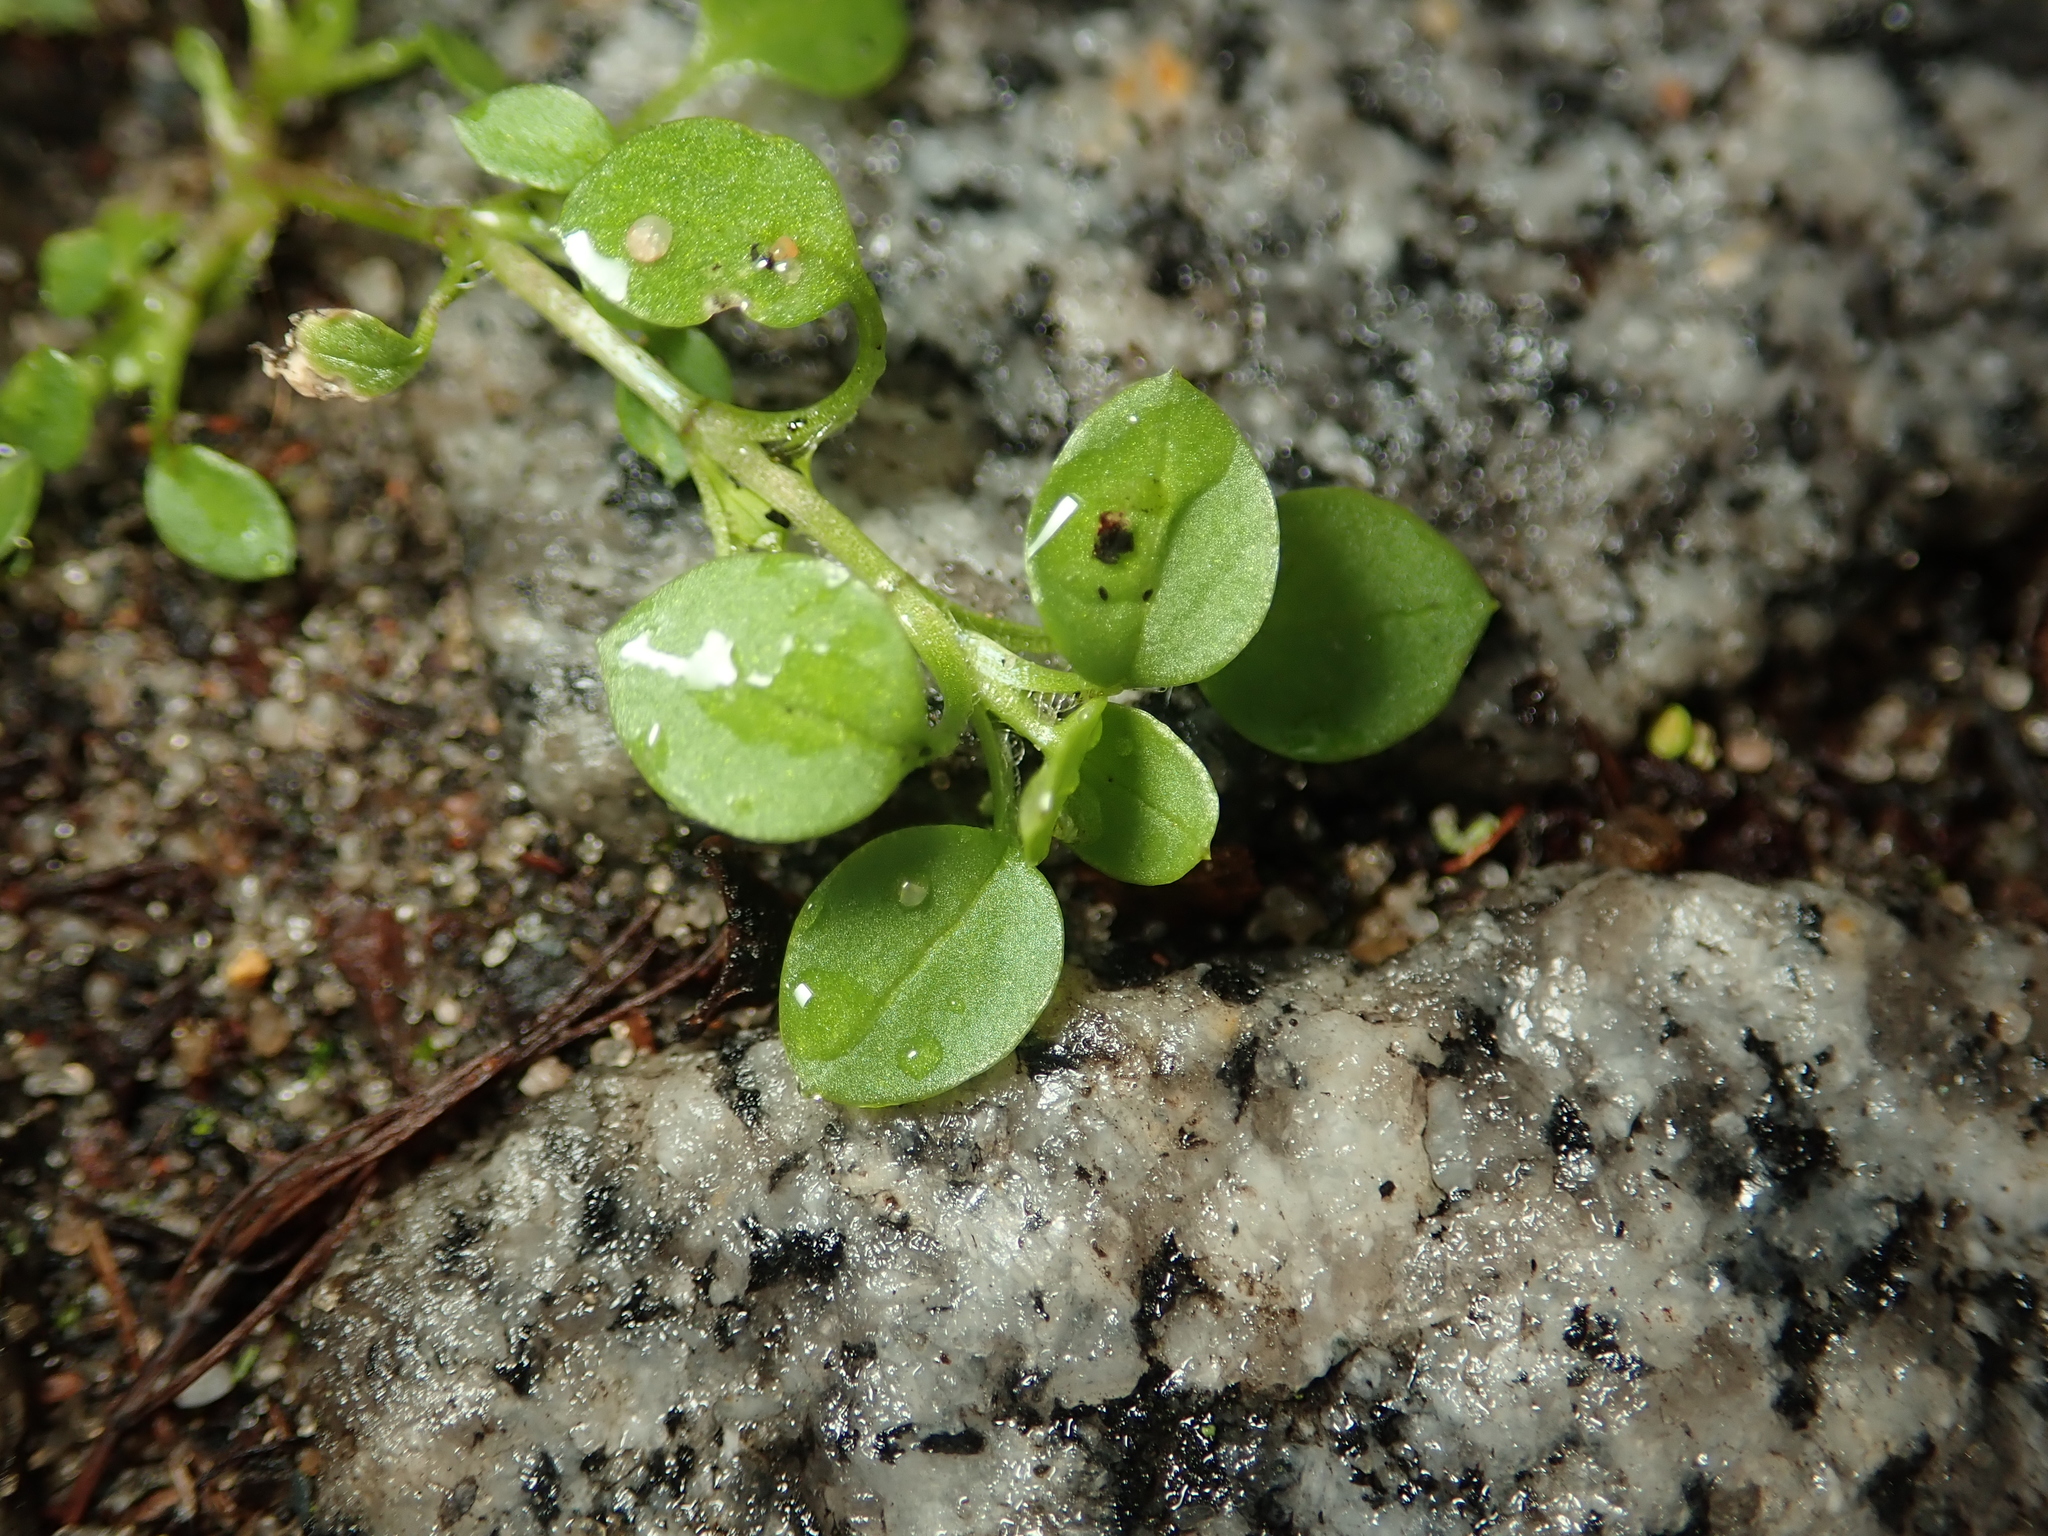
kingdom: Plantae
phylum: Tracheophyta
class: Magnoliopsida
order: Caryophyllales
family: Caryophyllaceae
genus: Stellaria
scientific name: Stellaria media
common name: Common chickweed
